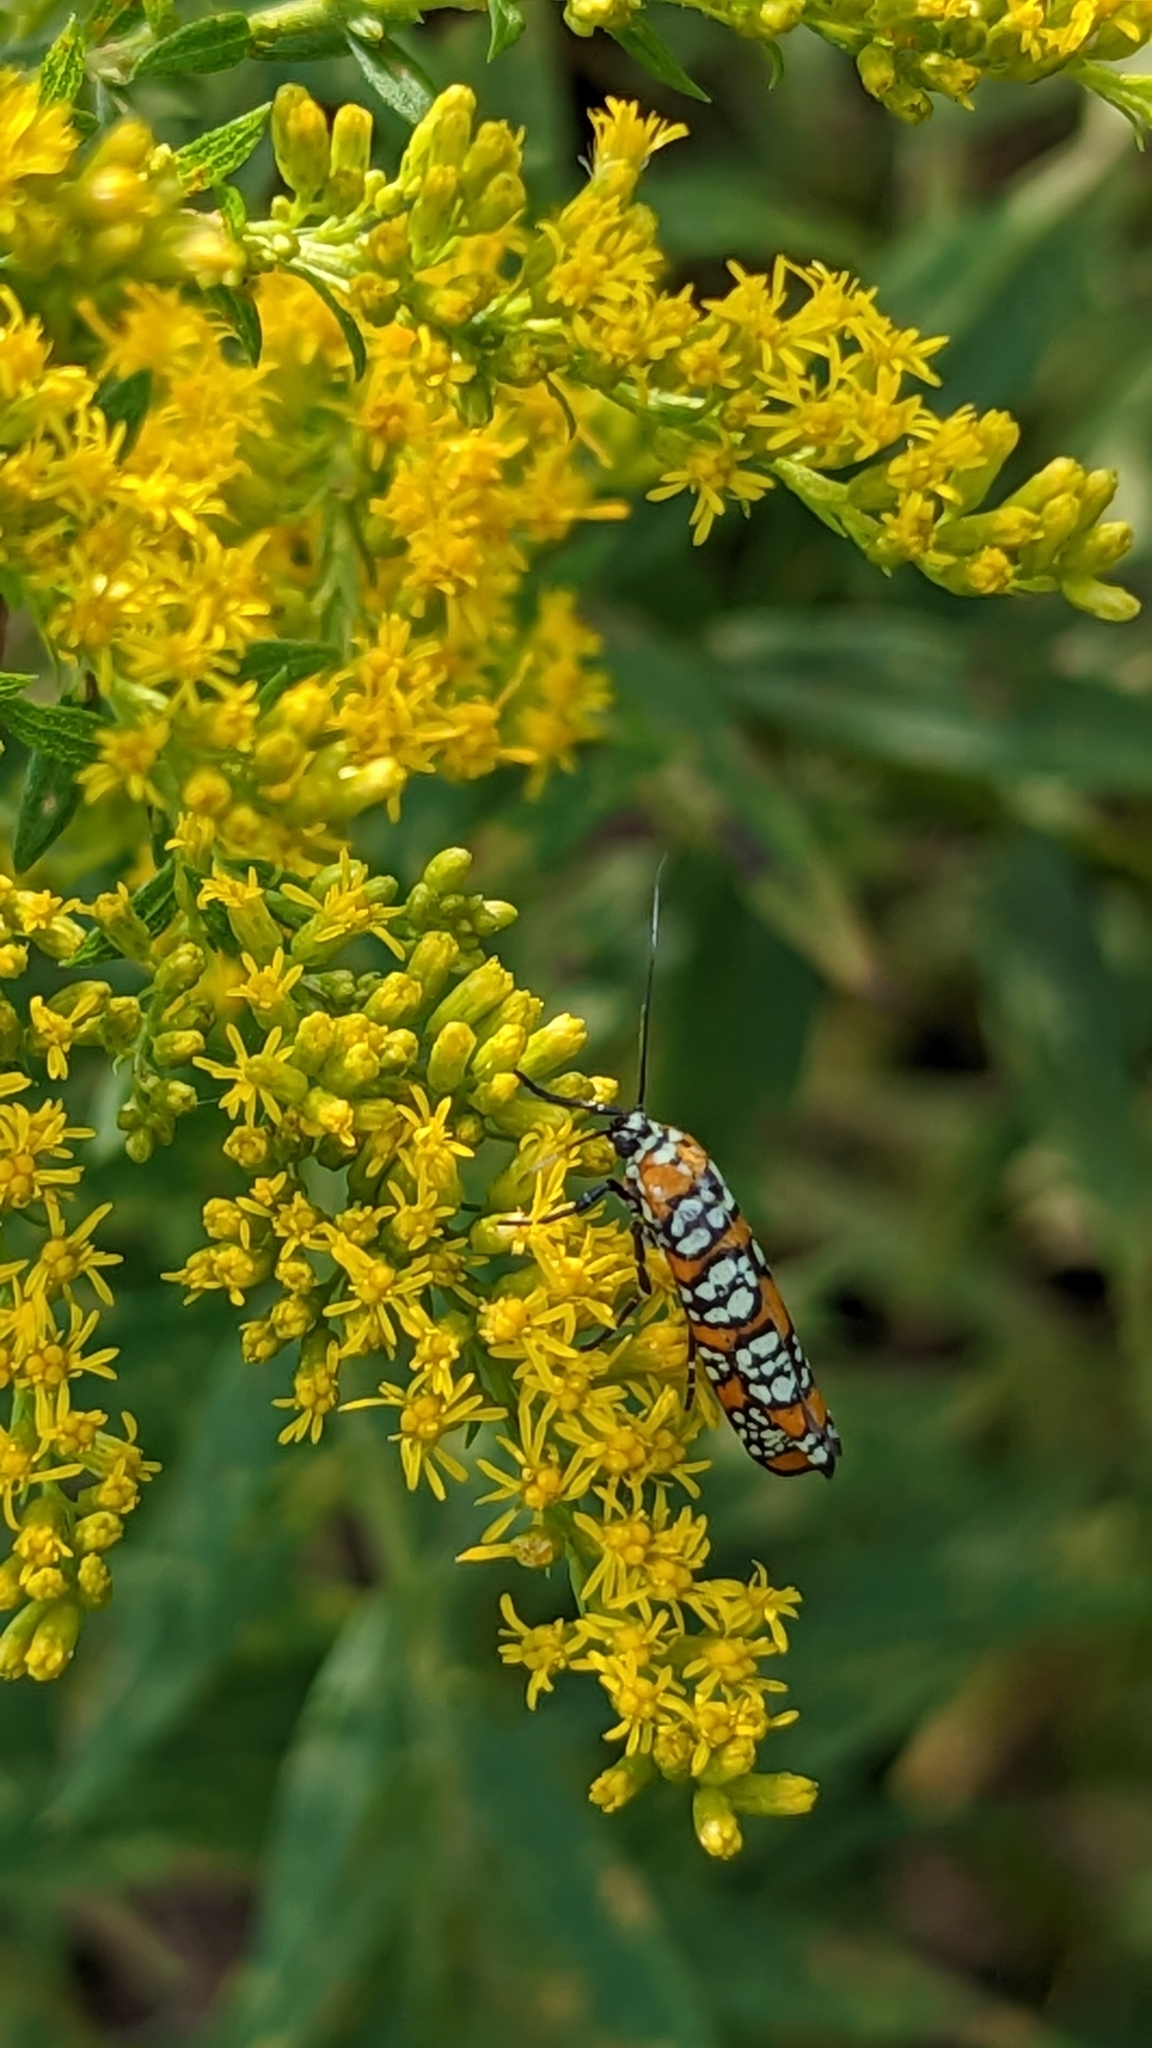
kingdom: Animalia
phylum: Arthropoda
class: Insecta
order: Lepidoptera
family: Attevidae
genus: Atteva
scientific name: Atteva punctella
